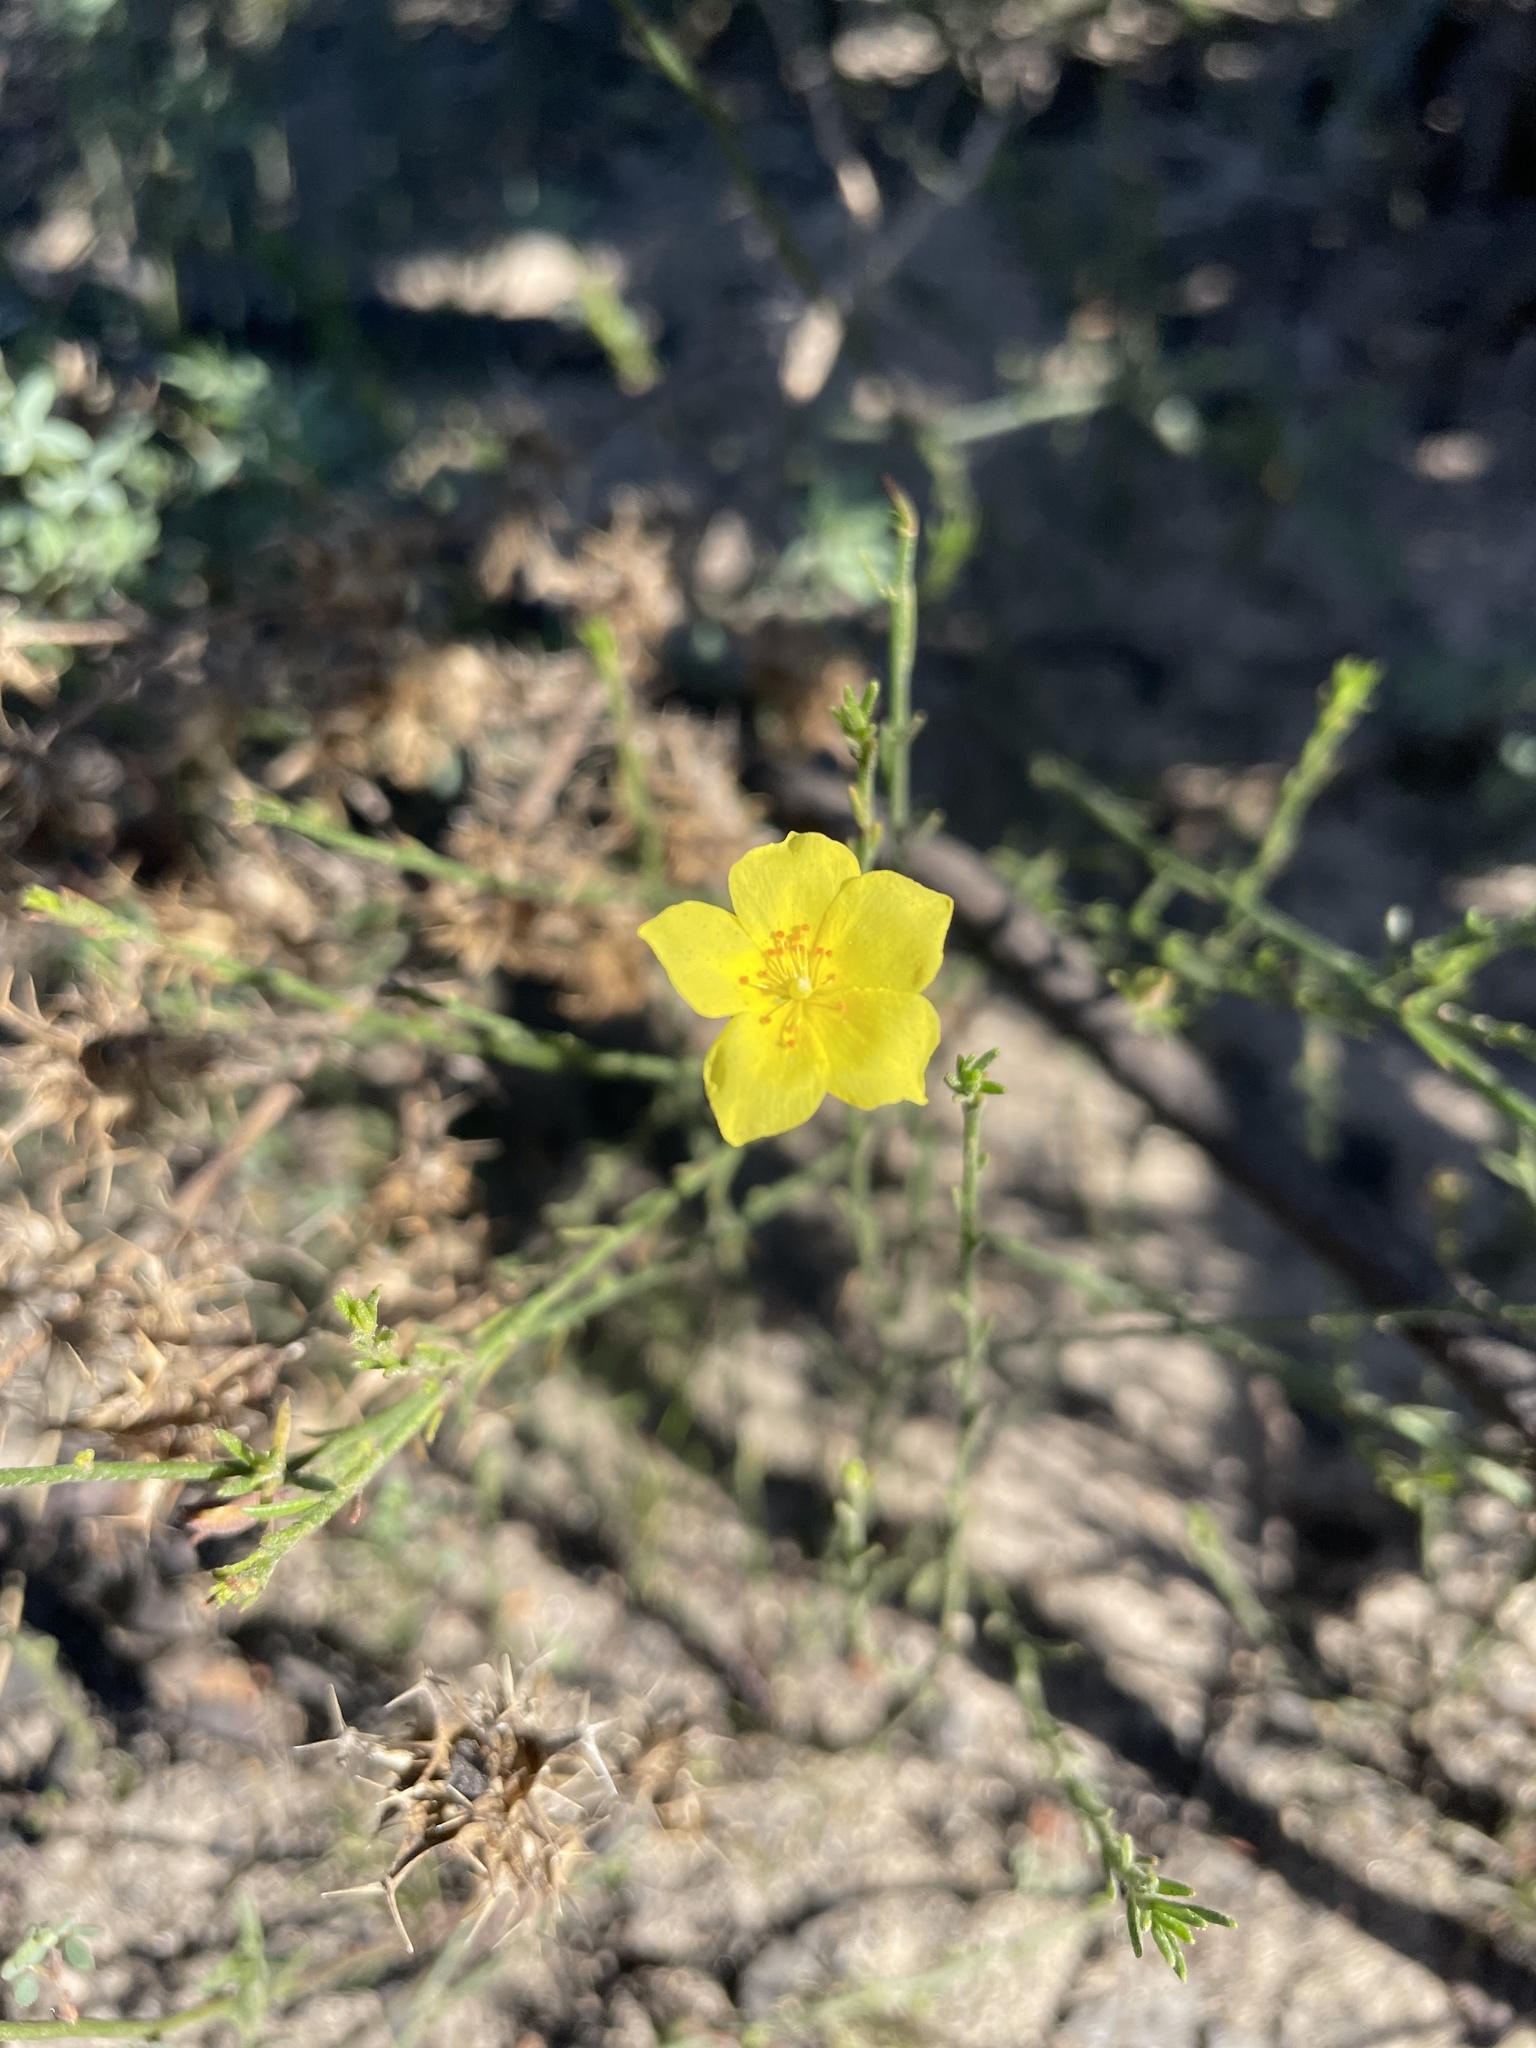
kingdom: Plantae
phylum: Tracheophyta
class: Magnoliopsida
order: Malvales
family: Cistaceae
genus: Crocanthemum
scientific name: Crocanthemum scoparium
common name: Broom-rose
